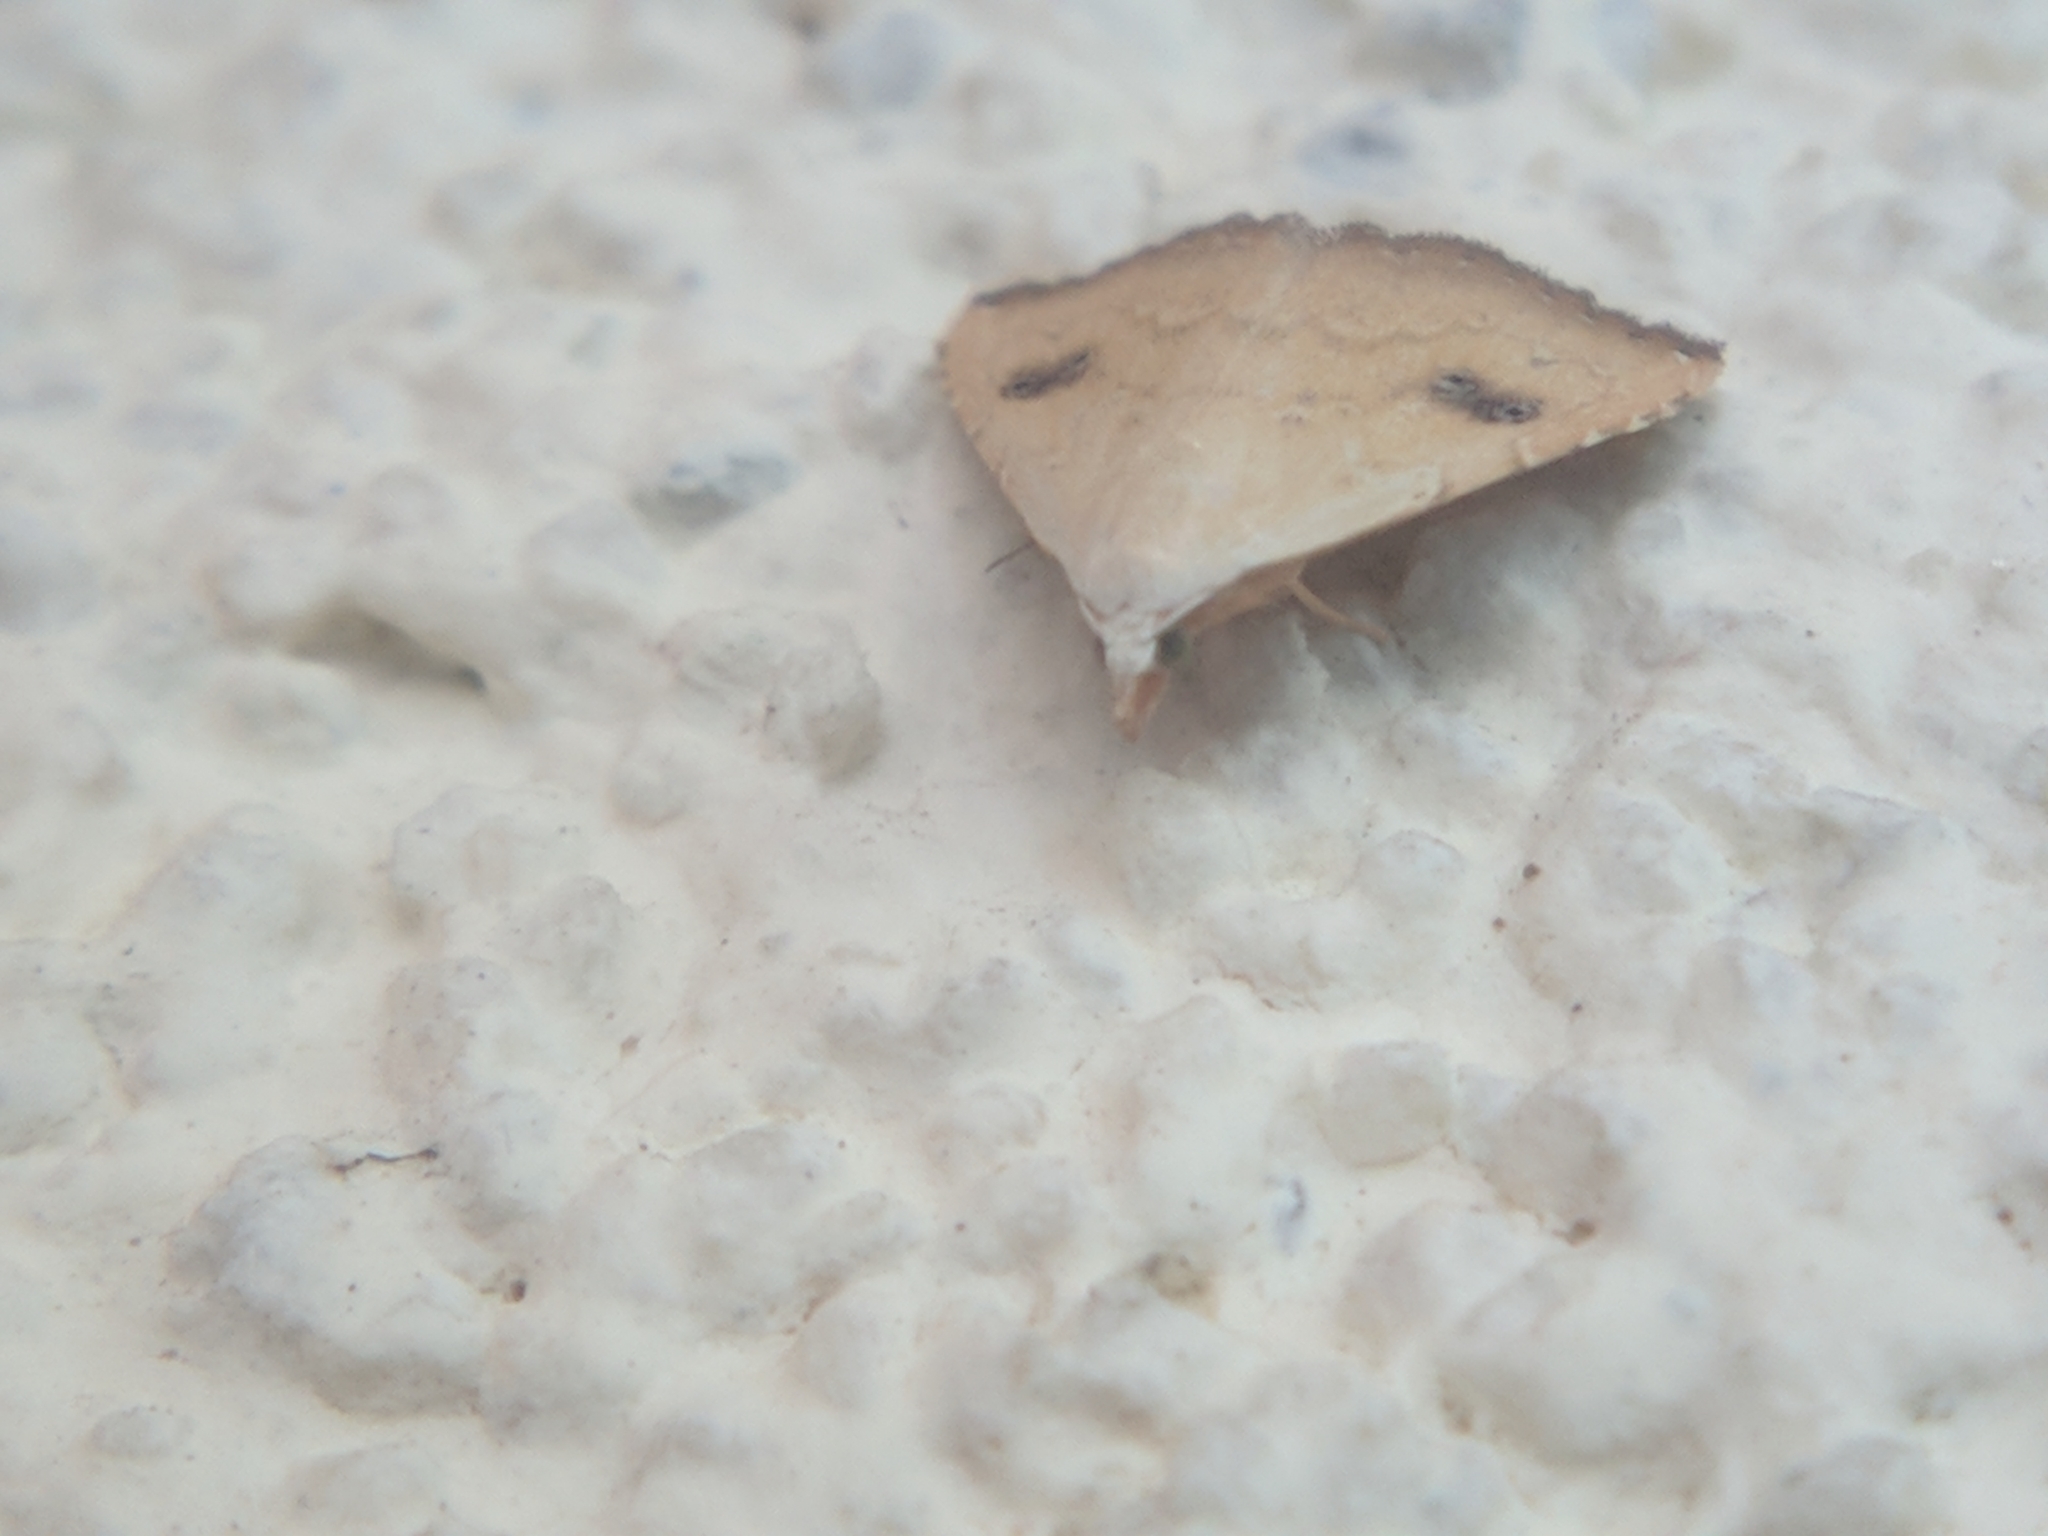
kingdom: Animalia
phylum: Arthropoda
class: Insecta
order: Lepidoptera
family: Erebidae
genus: Rivula
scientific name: Rivula sericealis
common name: Straw dot
